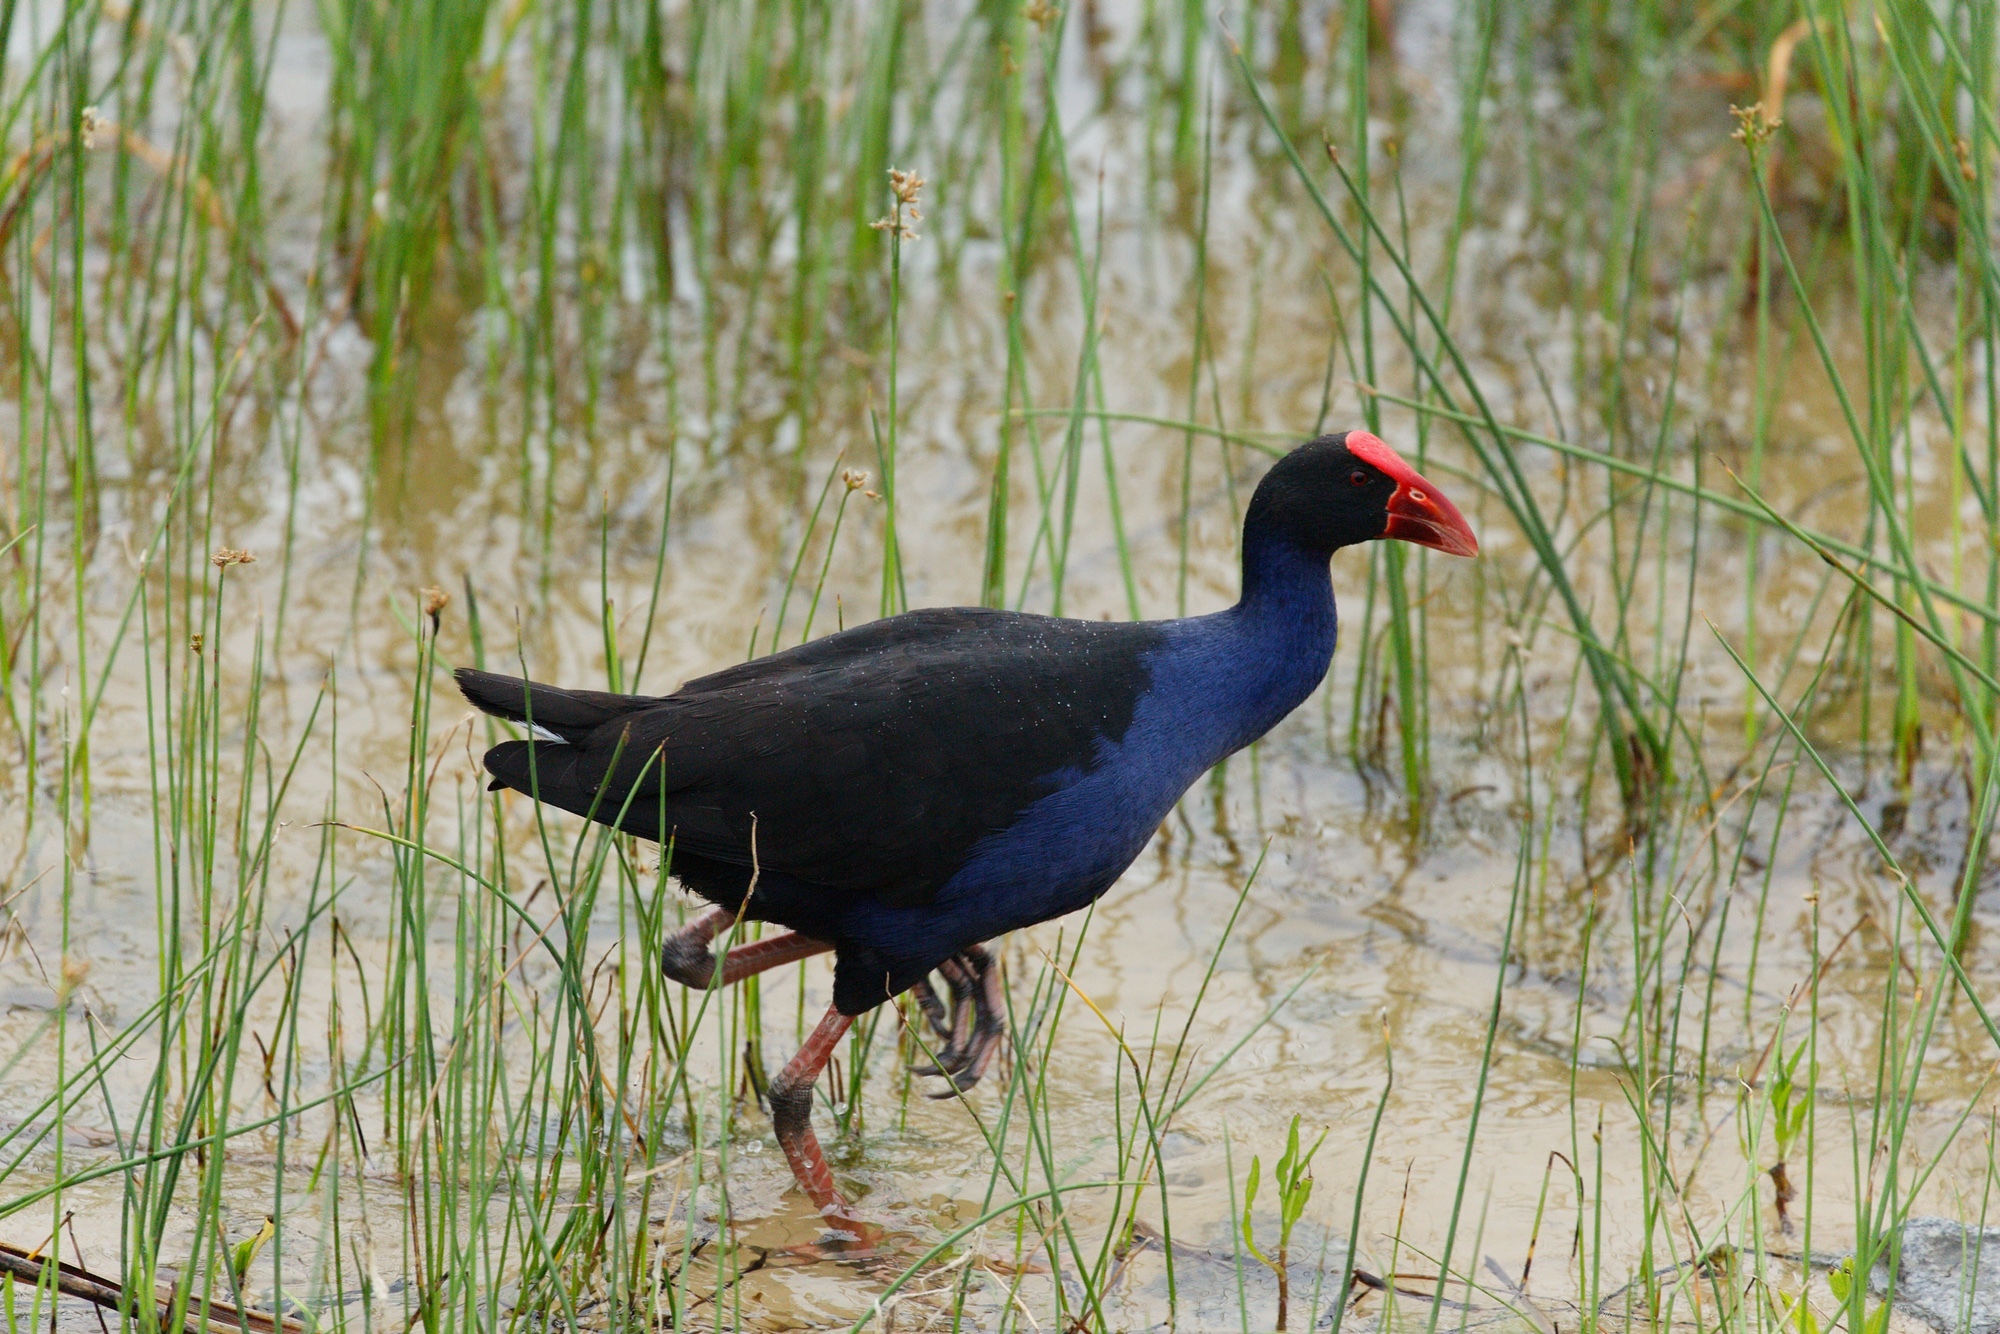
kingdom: Animalia
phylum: Chordata
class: Aves
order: Gruiformes
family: Rallidae
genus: Porphyrio
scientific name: Porphyrio melanotus
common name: Australasian swamphen
